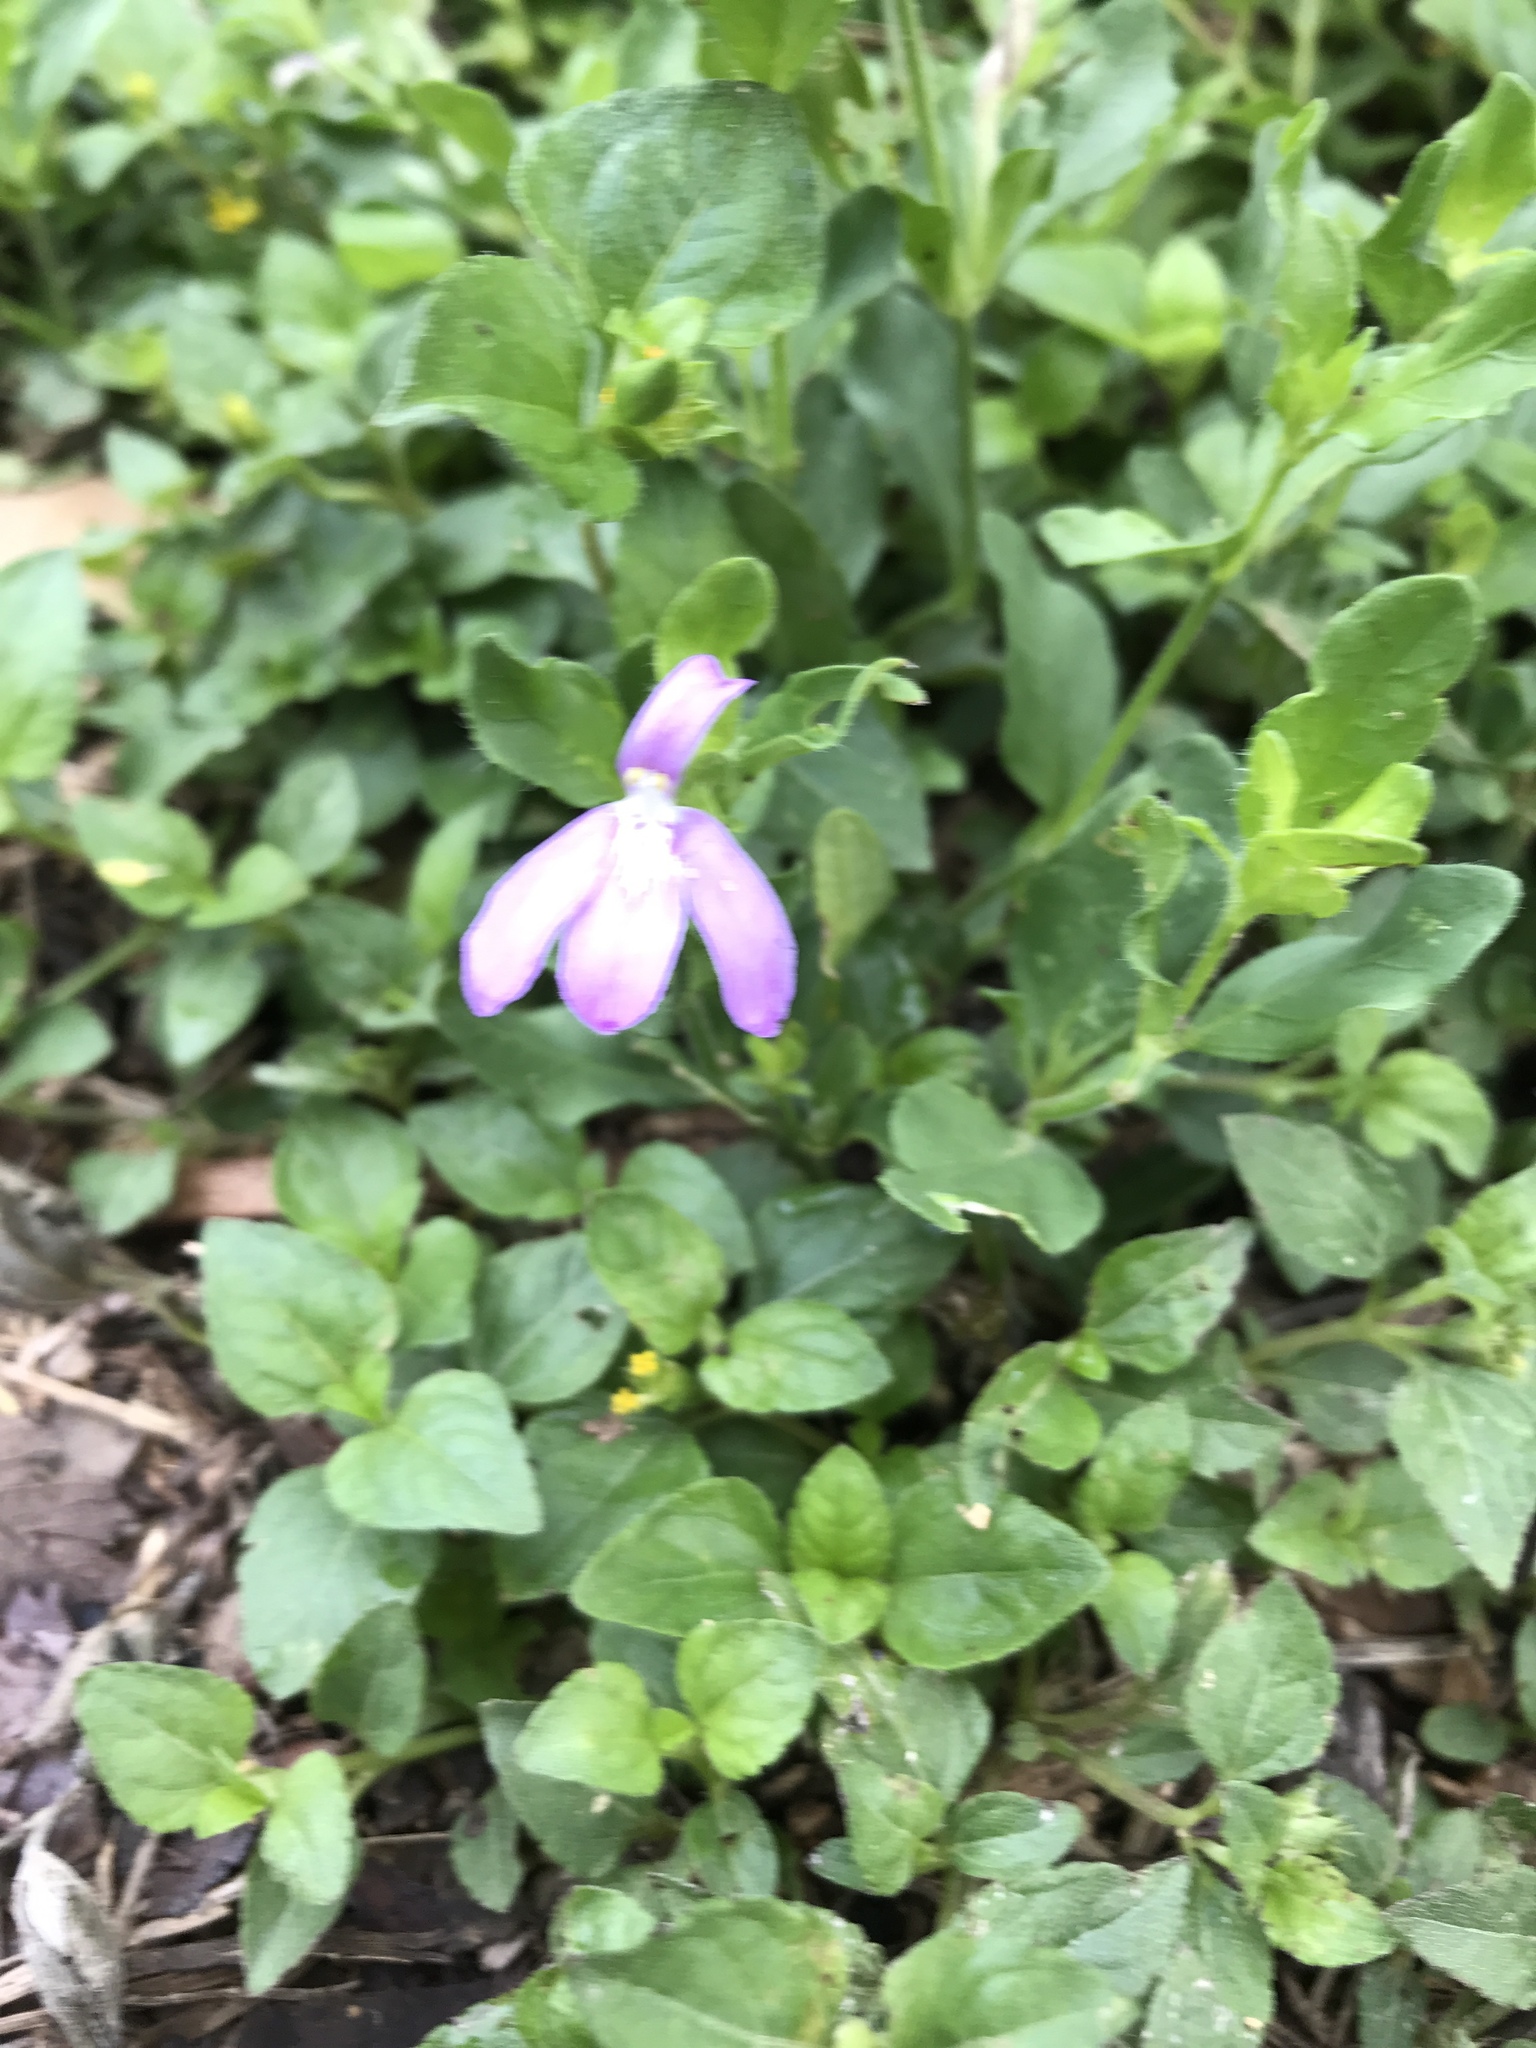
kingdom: Plantae
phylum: Tracheophyta
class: Magnoliopsida
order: Lamiales
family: Acanthaceae
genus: Justicia
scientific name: Justicia pilosella
